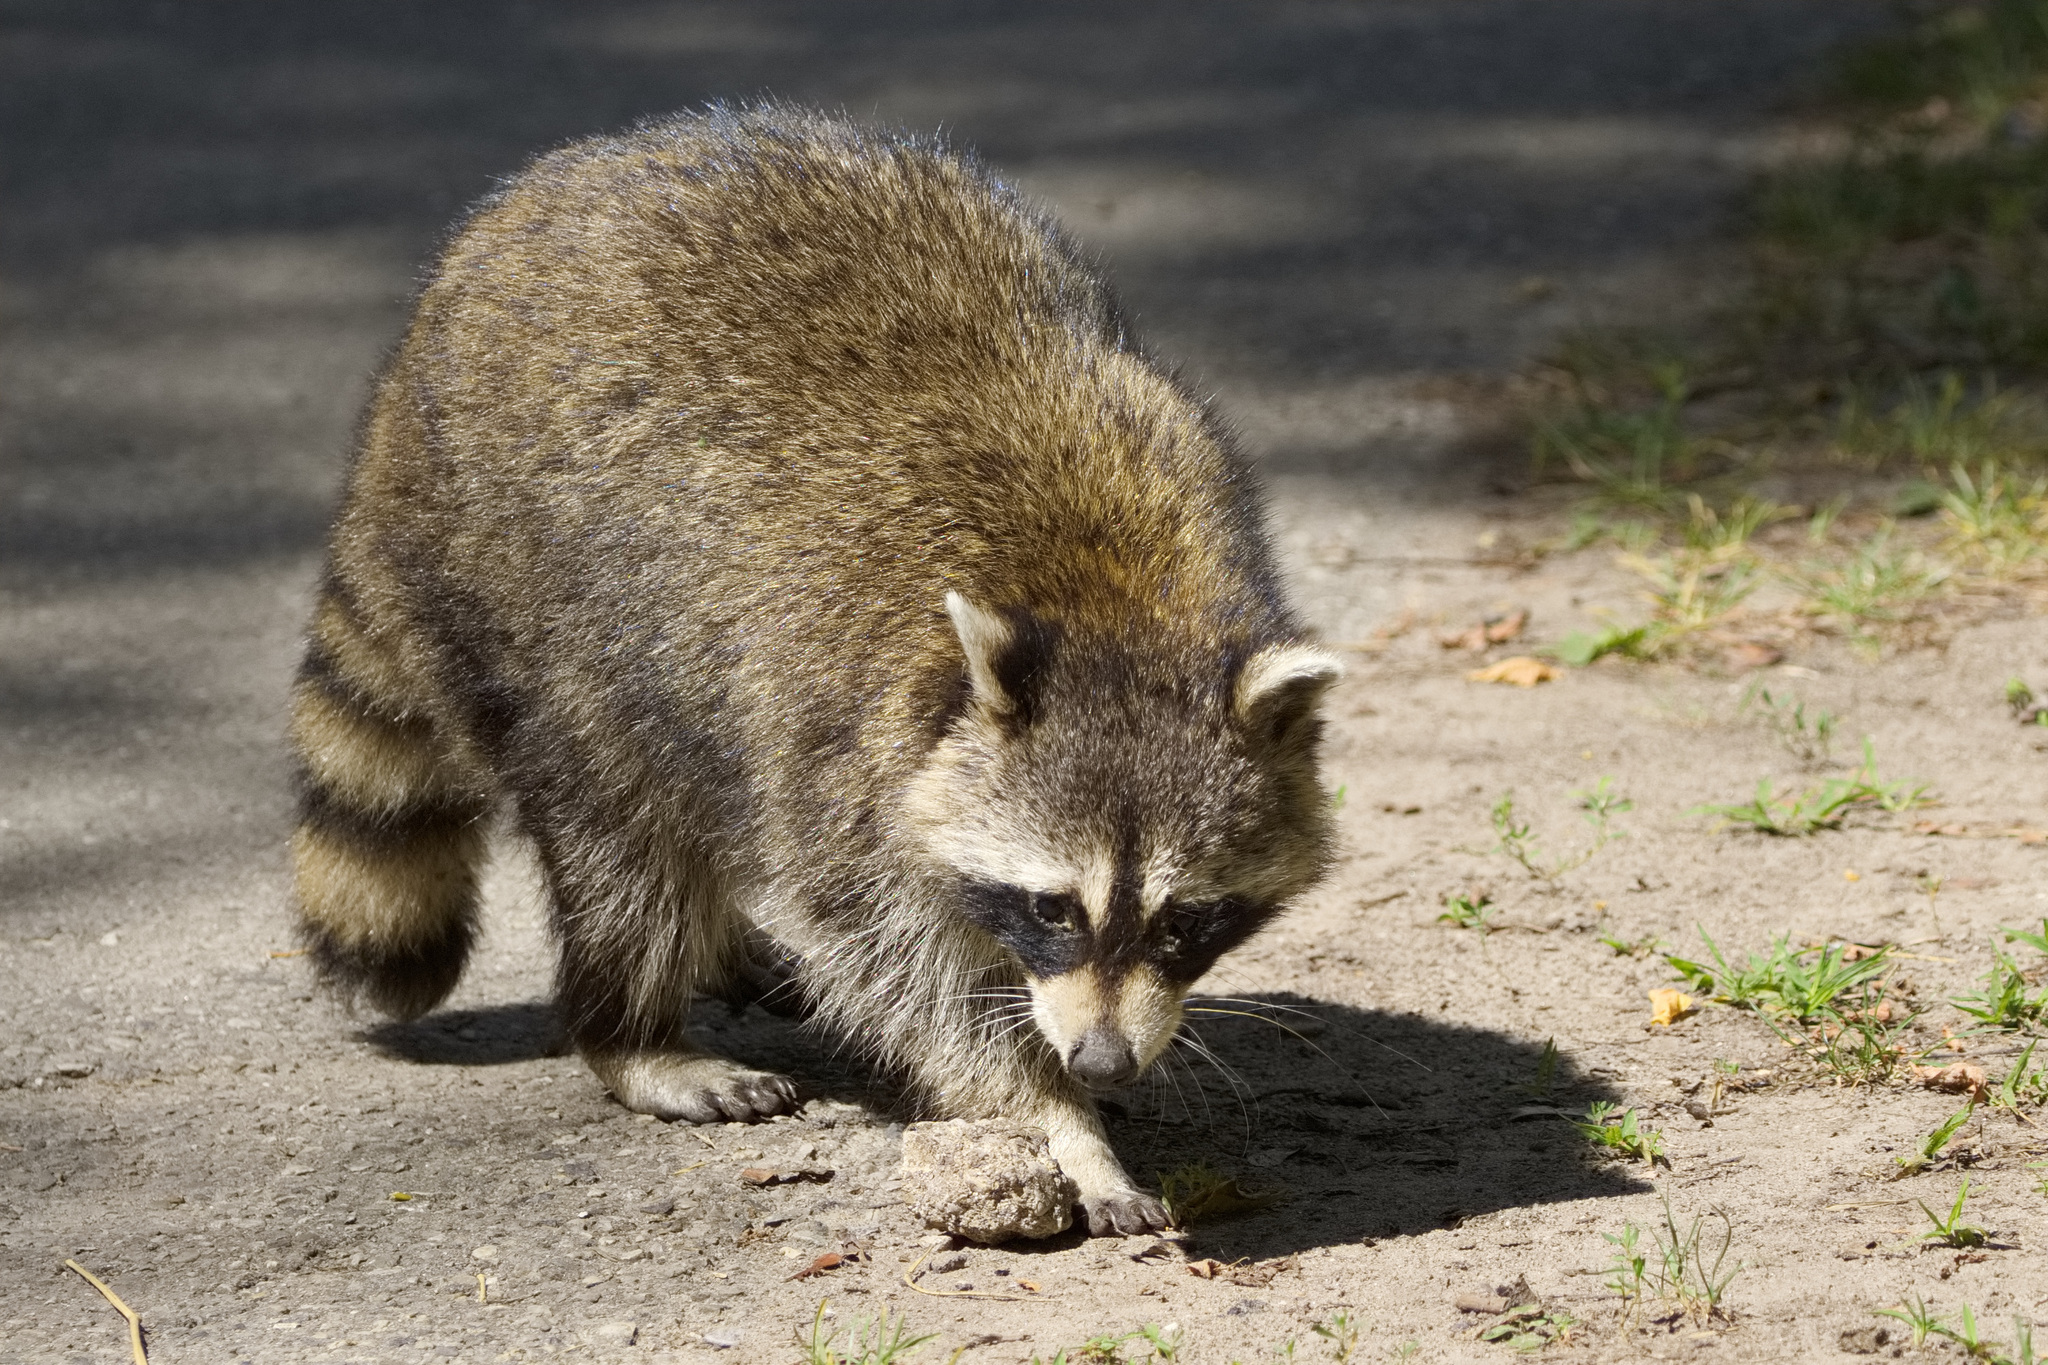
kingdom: Animalia
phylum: Chordata
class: Mammalia
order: Carnivora
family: Procyonidae
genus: Procyon
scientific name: Procyon lotor
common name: Raccoon
